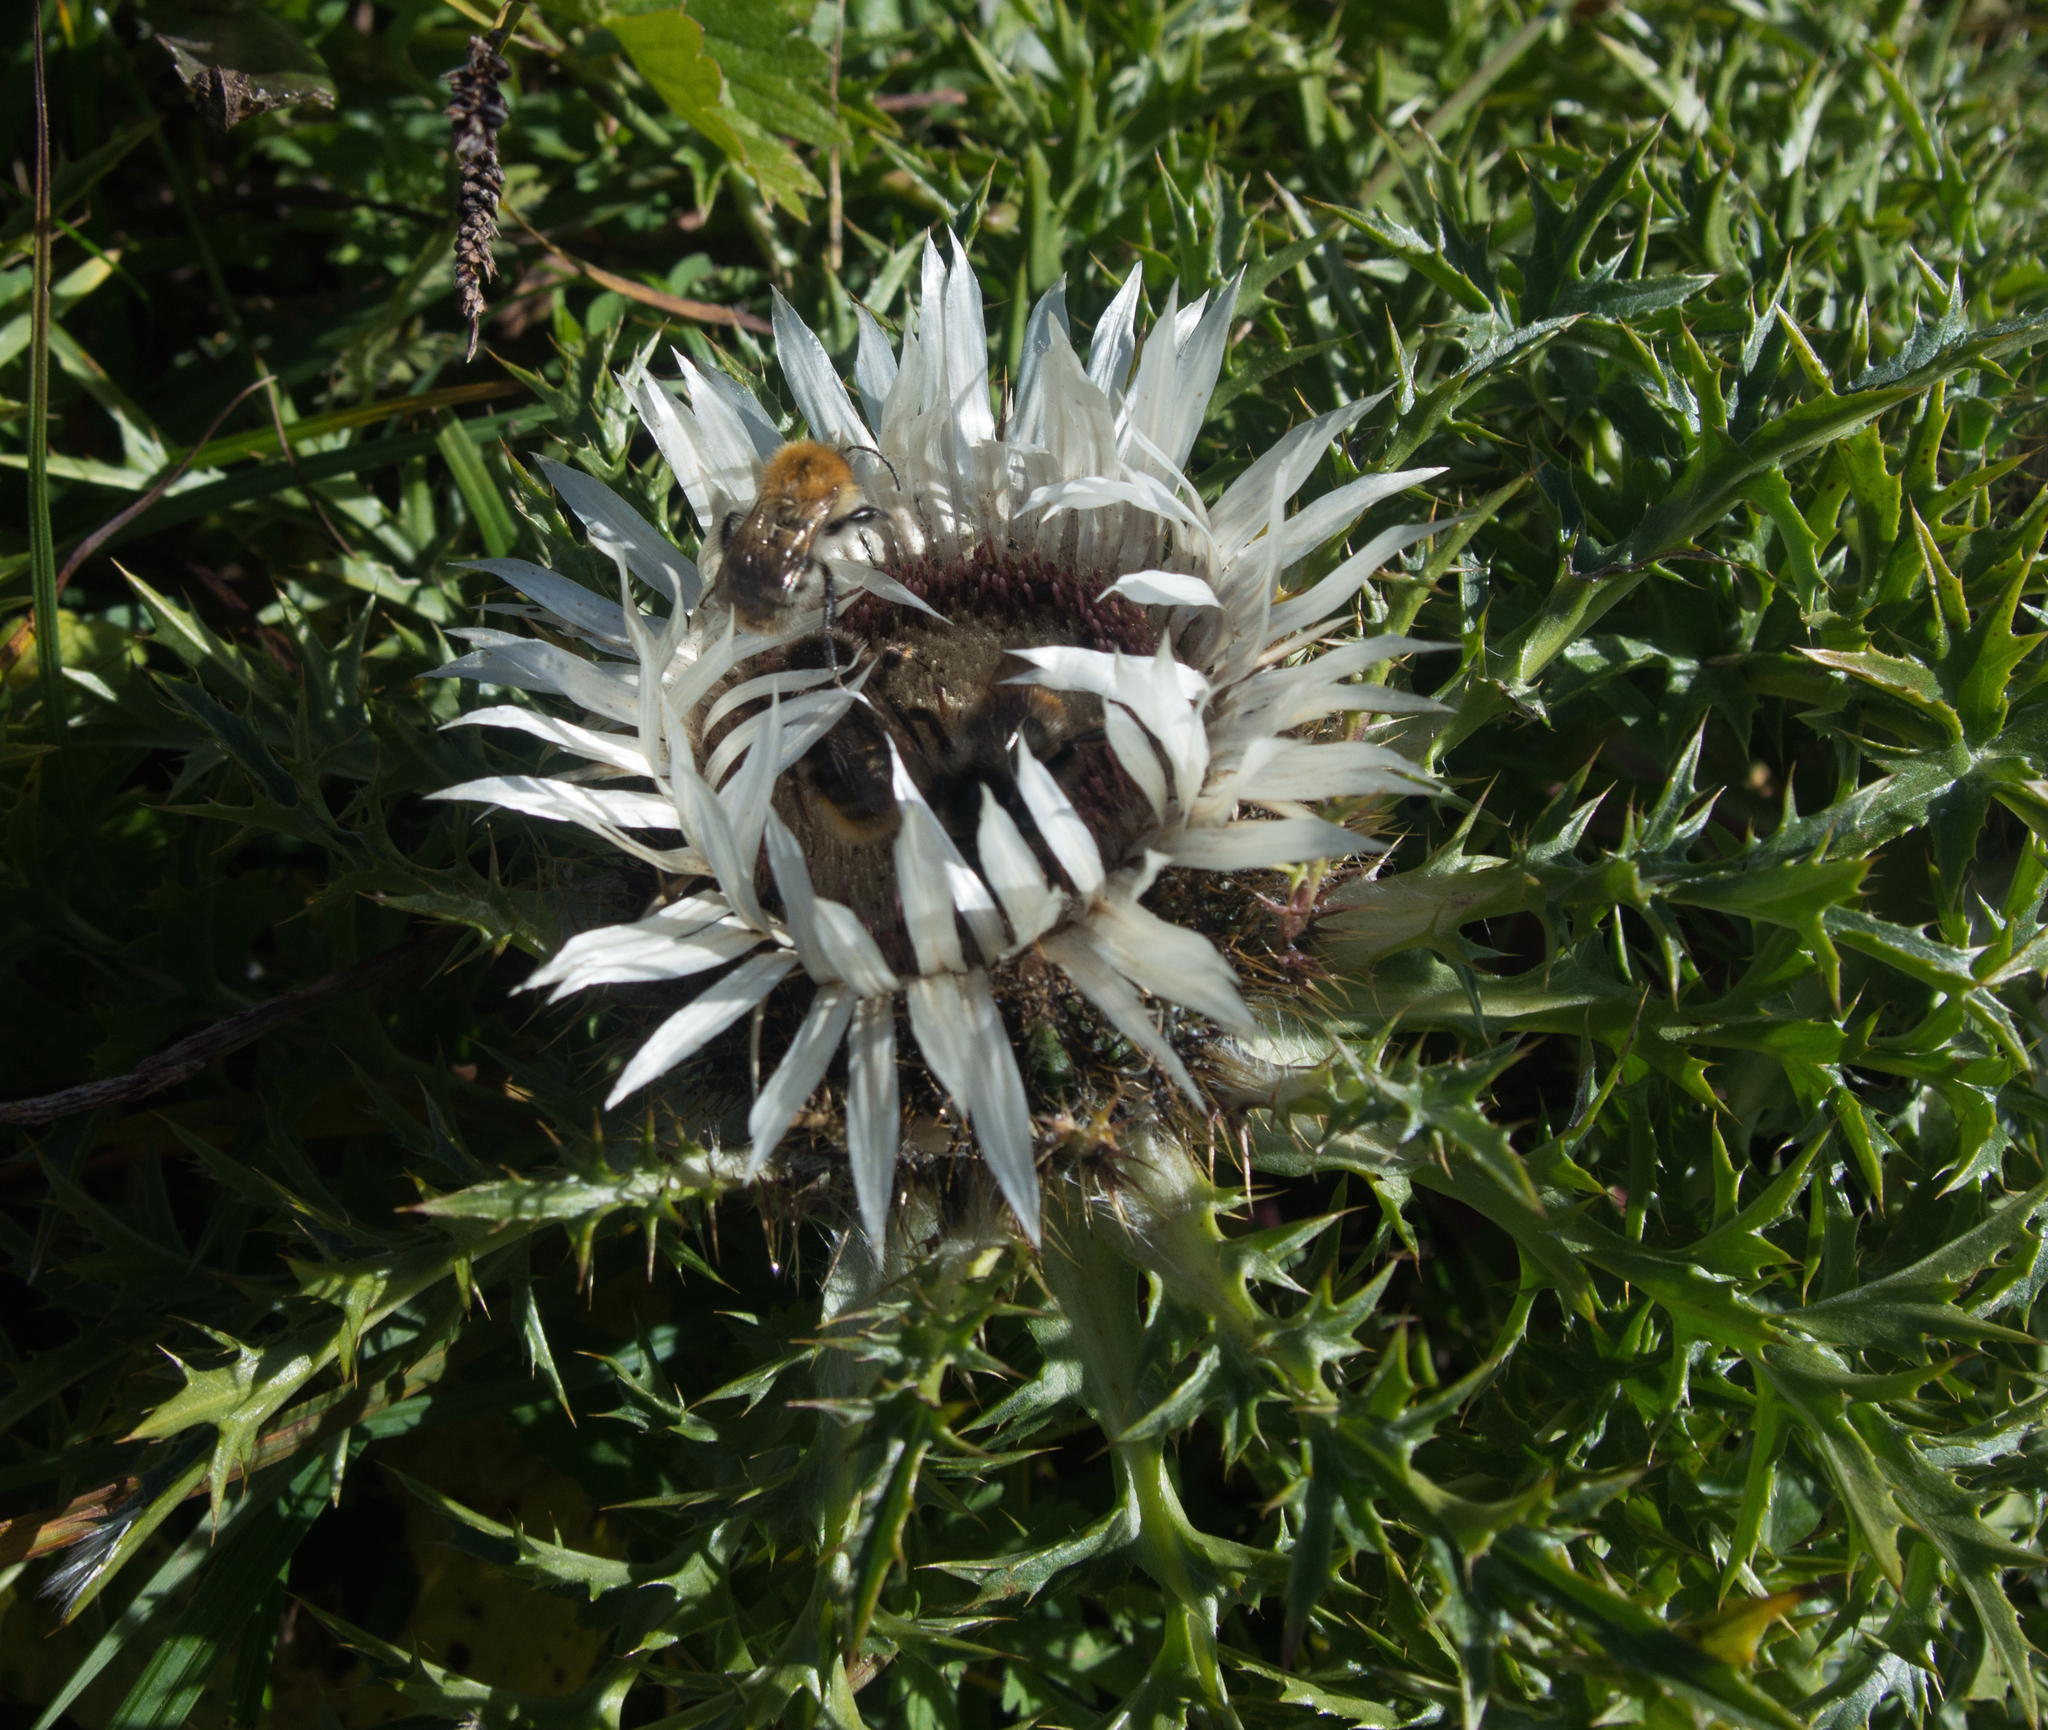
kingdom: Plantae
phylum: Tracheophyta
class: Magnoliopsida
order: Asterales
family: Asteraceae
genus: Carlina
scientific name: Carlina acaulis
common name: Stemless carline thistle
